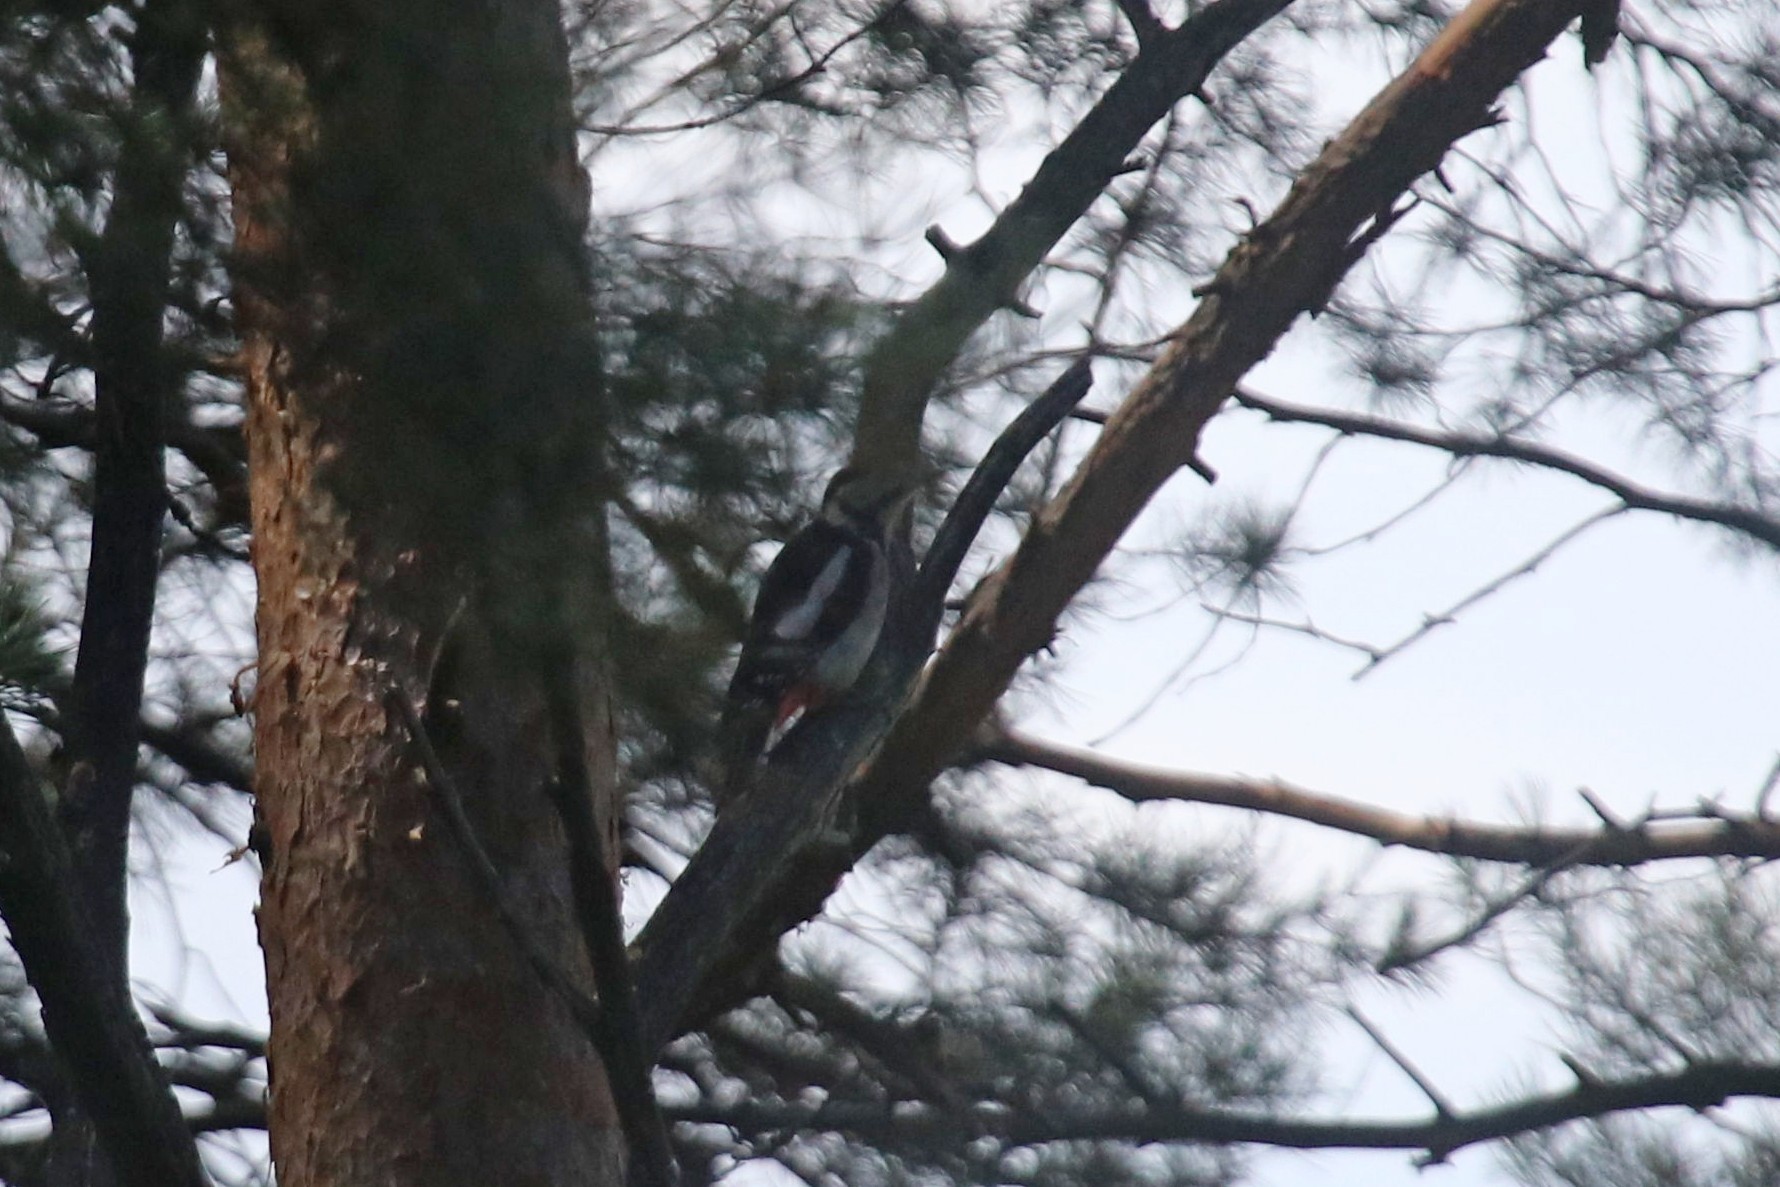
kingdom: Animalia
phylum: Chordata
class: Aves
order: Piciformes
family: Picidae
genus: Dendrocopos
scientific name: Dendrocopos major
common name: Great spotted woodpecker
